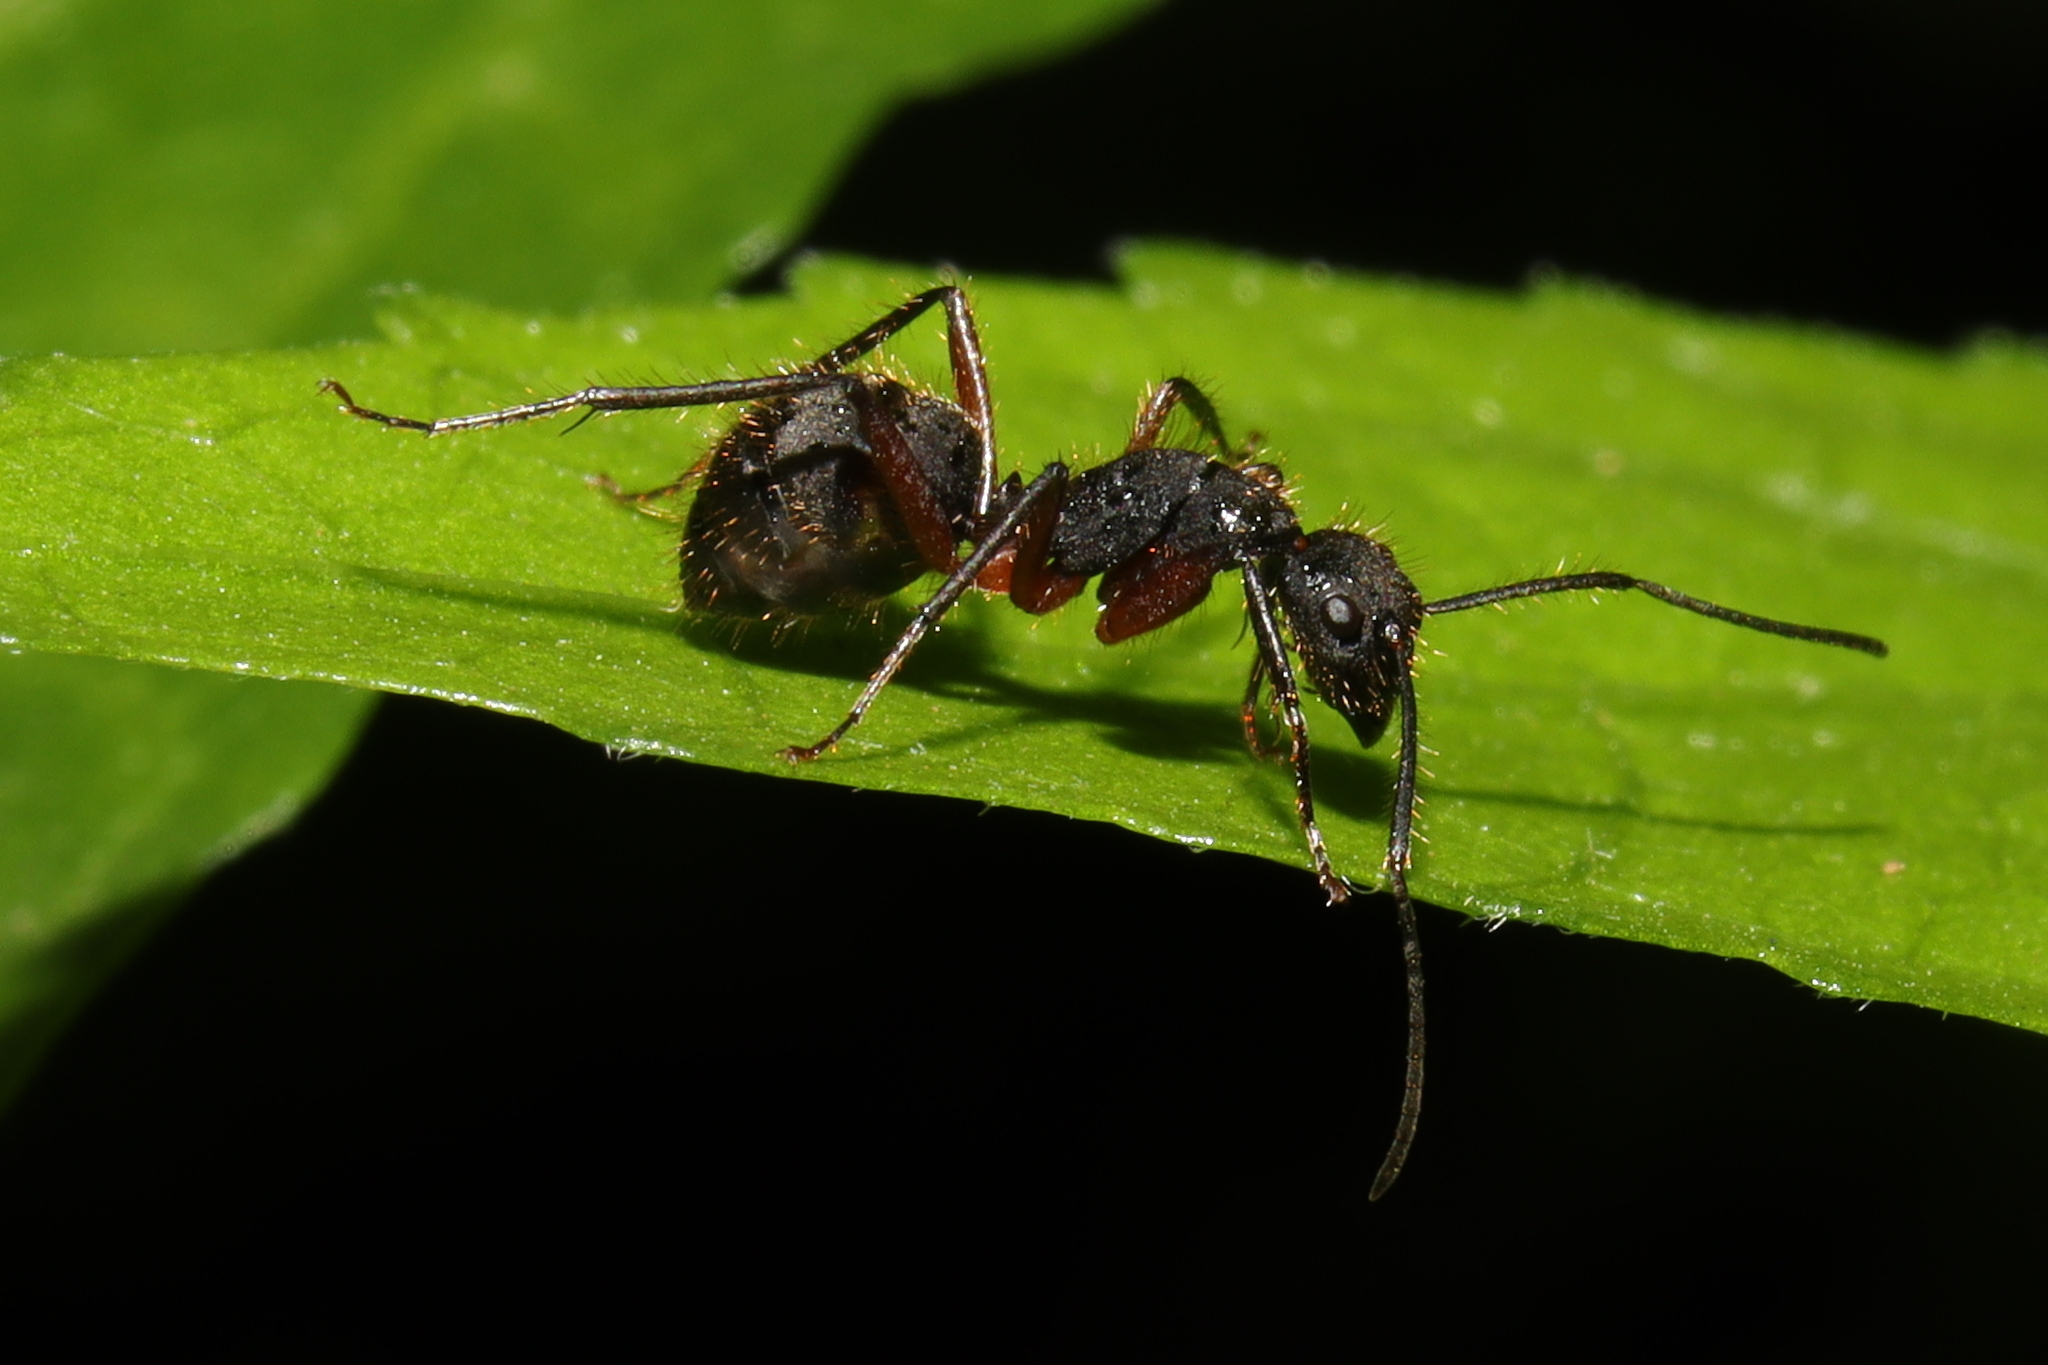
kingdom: Animalia
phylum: Arthropoda
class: Insecta
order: Hymenoptera
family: Formicidae
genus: Camponotus
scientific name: Camponotus rufipes
